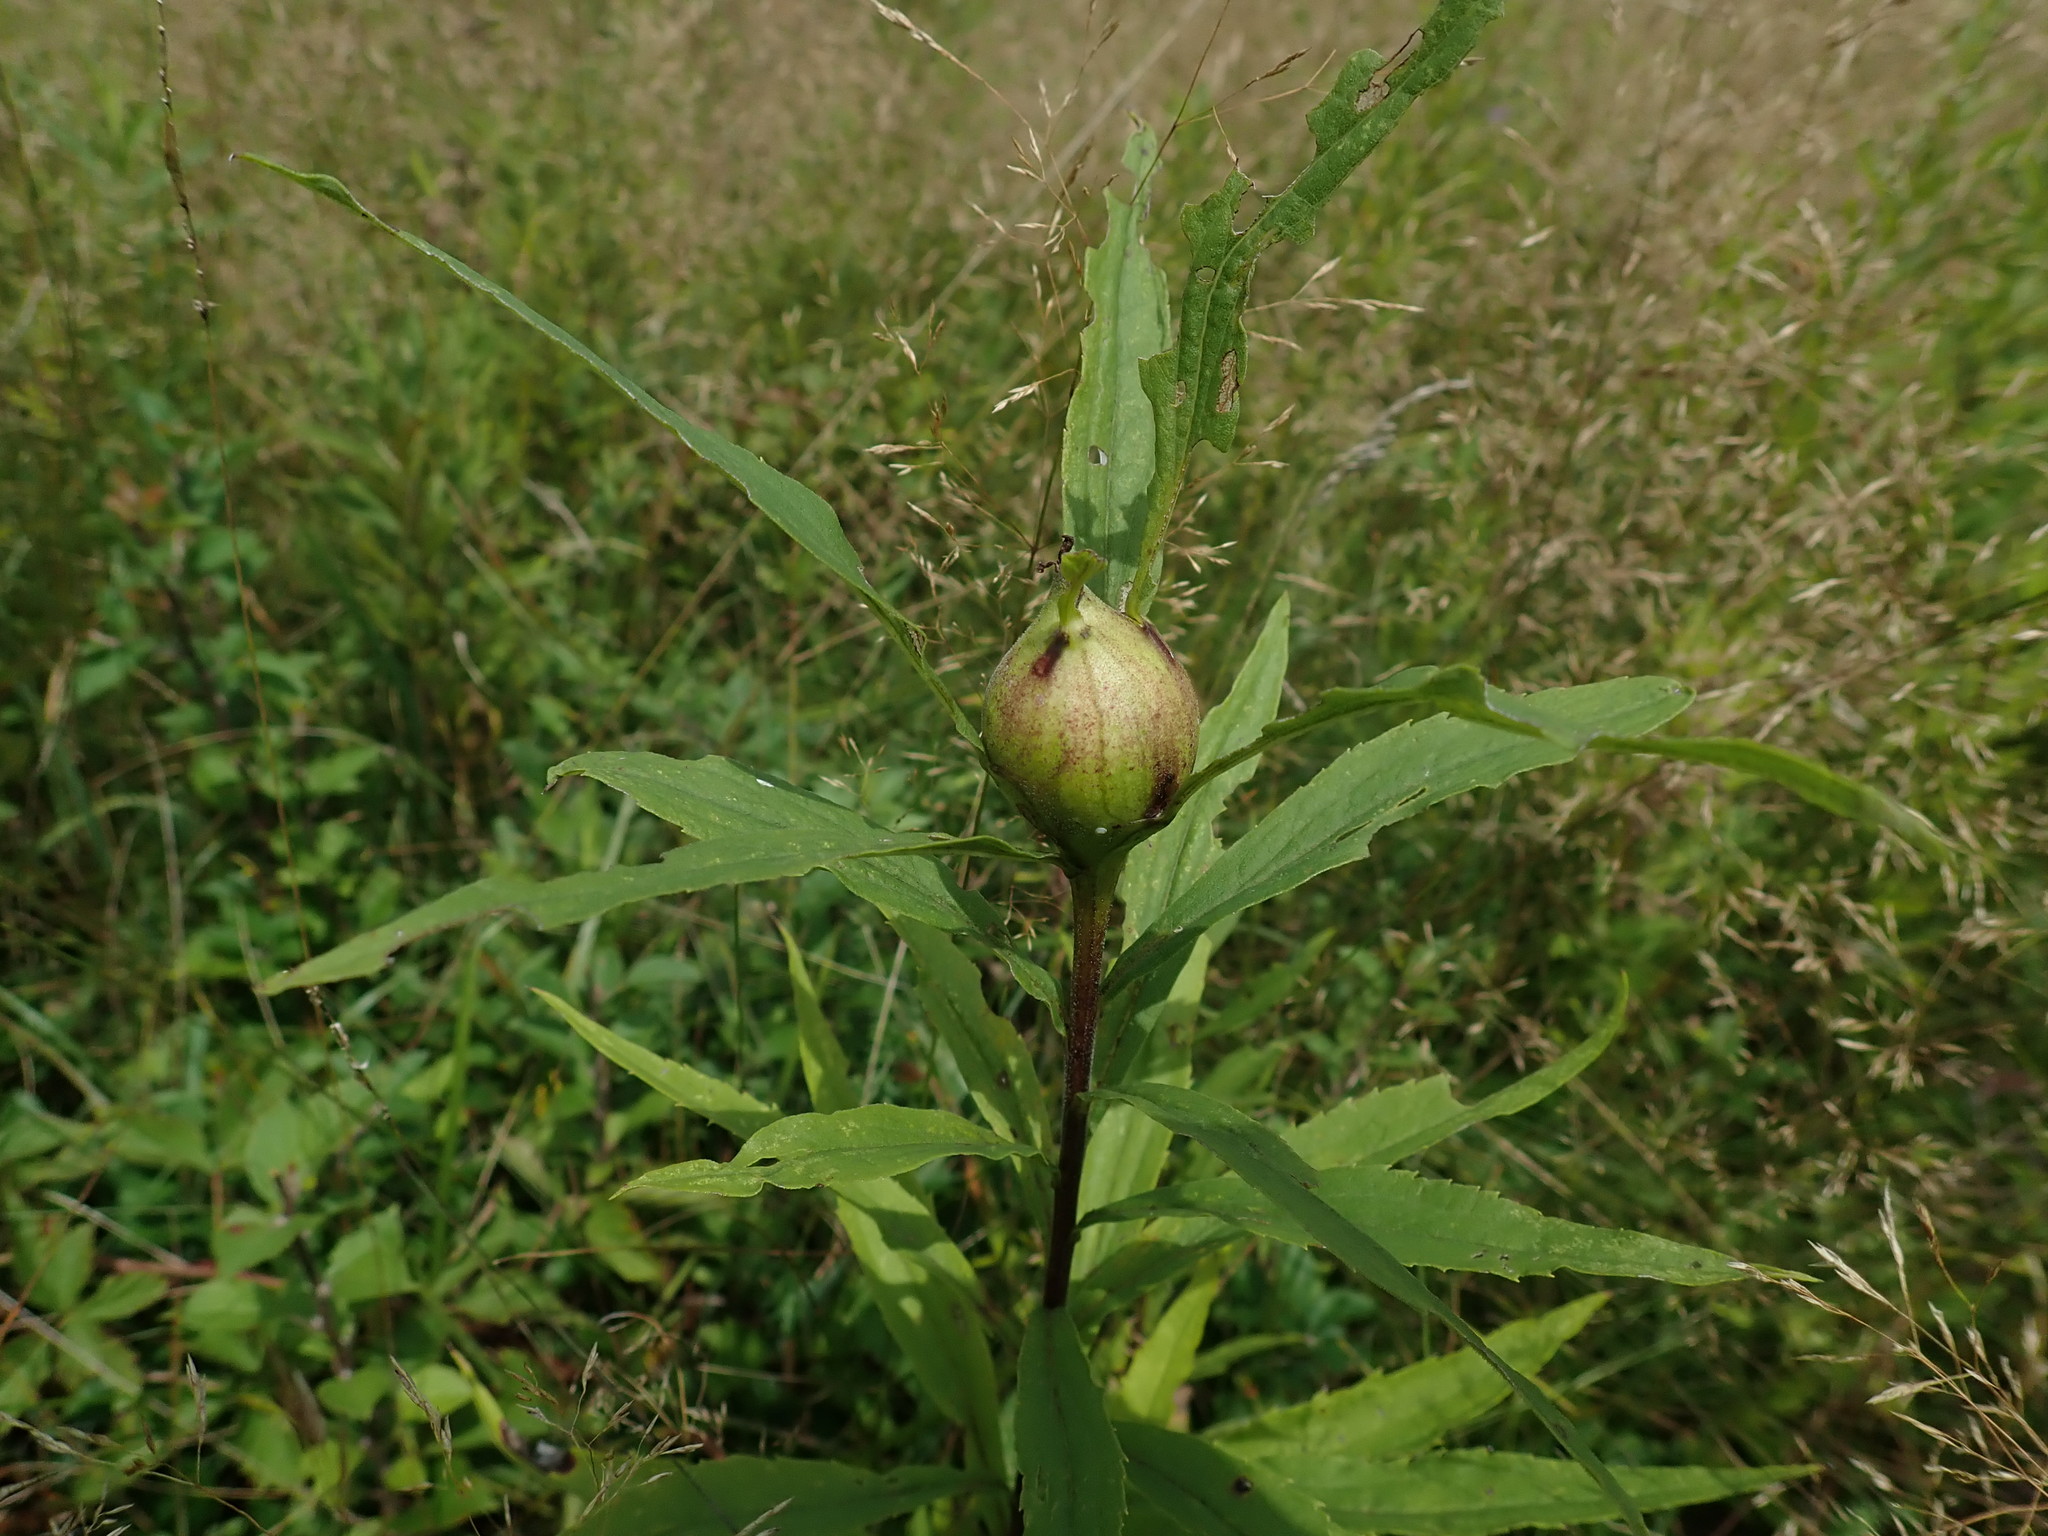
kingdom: Animalia
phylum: Arthropoda
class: Insecta
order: Diptera
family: Tephritidae
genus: Eurosta
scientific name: Eurosta solidaginis
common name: Goldenrod gall fly
